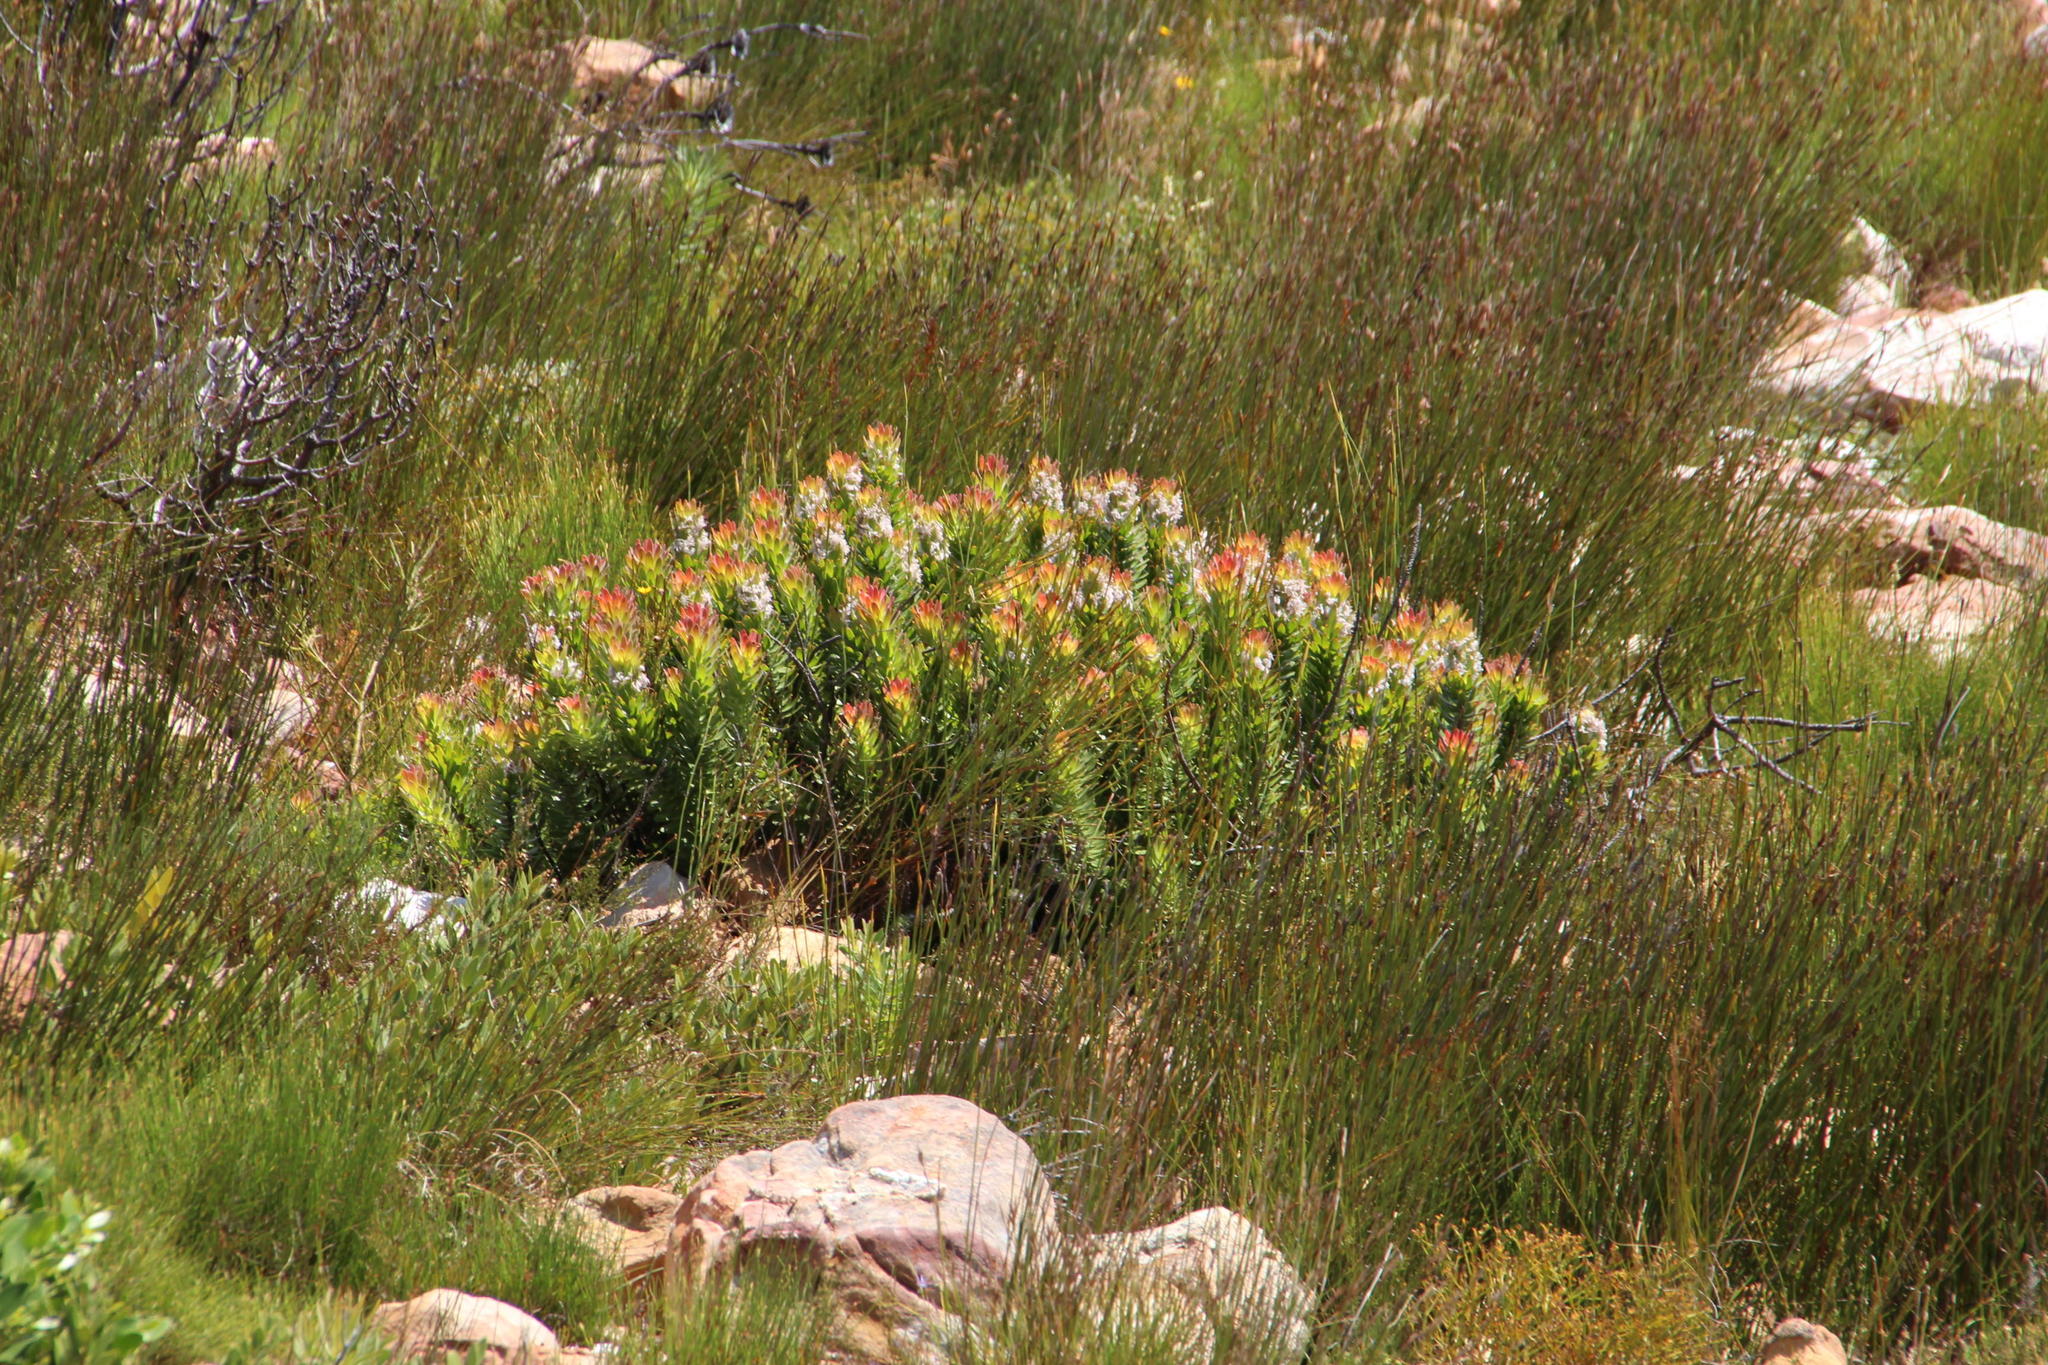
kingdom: Plantae
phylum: Tracheophyta
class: Magnoliopsida
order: Proteales
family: Proteaceae
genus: Mimetes
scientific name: Mimetes cucullatus
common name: Common pagoda
